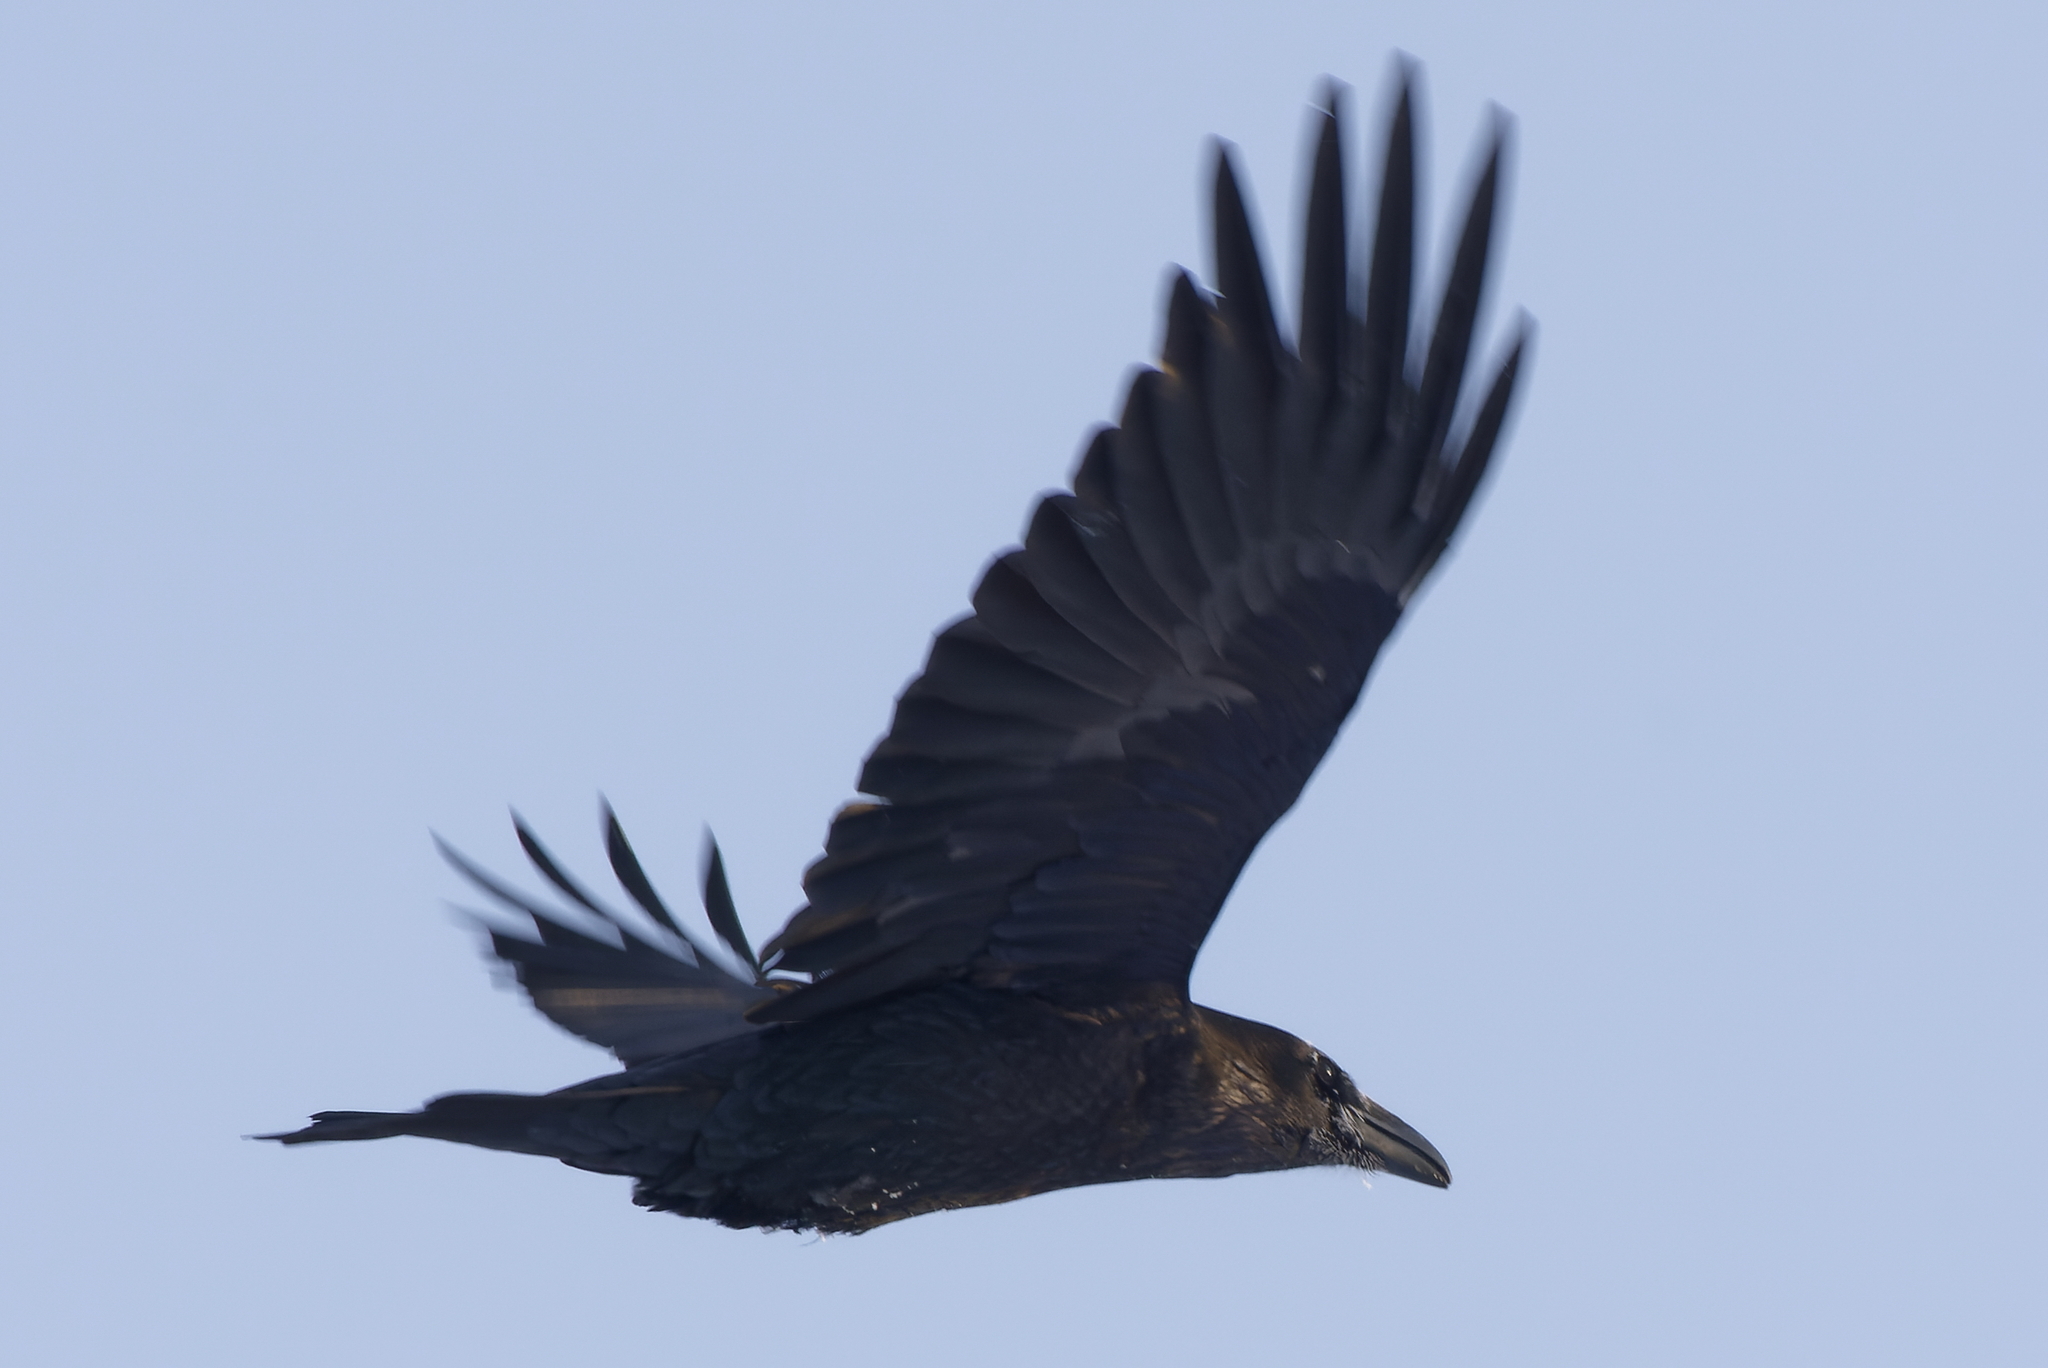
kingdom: Animalia
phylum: Chordata
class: Aves
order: Passeriformes
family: Corvidae
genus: Corvus
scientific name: Corvus corax
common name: Common raven
